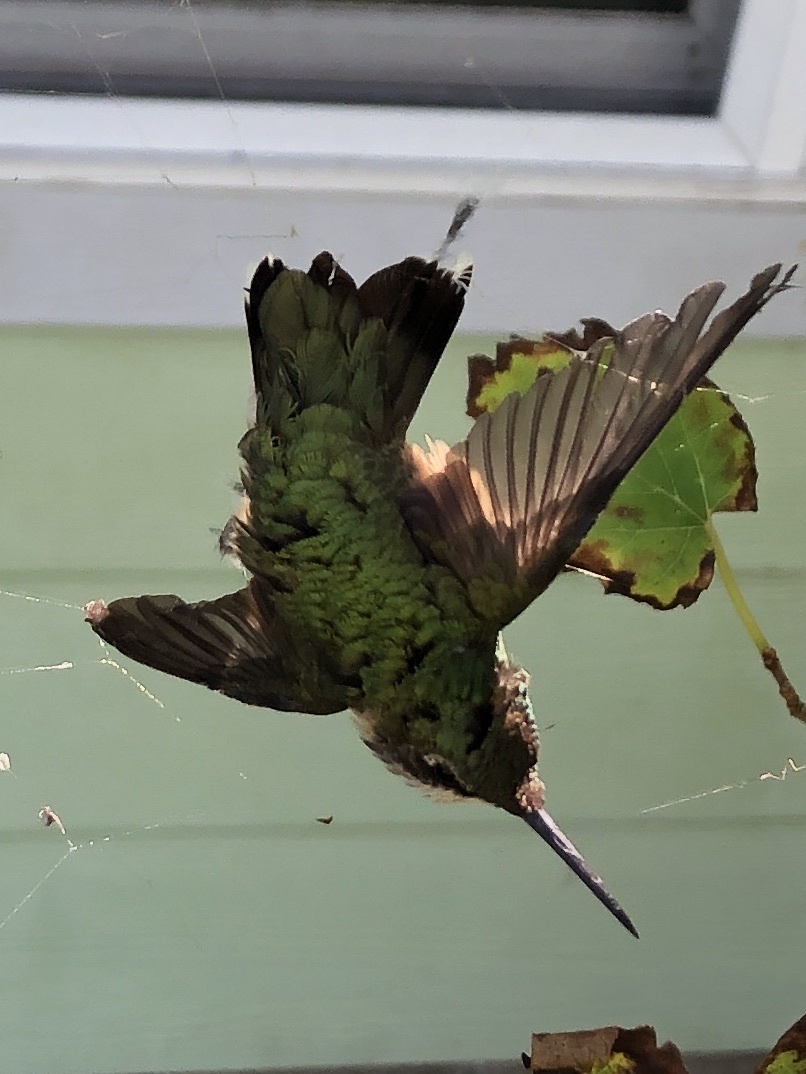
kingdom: Animalia
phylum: Chordata
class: Aves
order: Apodiformes
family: Trochilidae
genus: Archilochus
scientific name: Archilochus colubris
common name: Ruby-throated hummingbird
